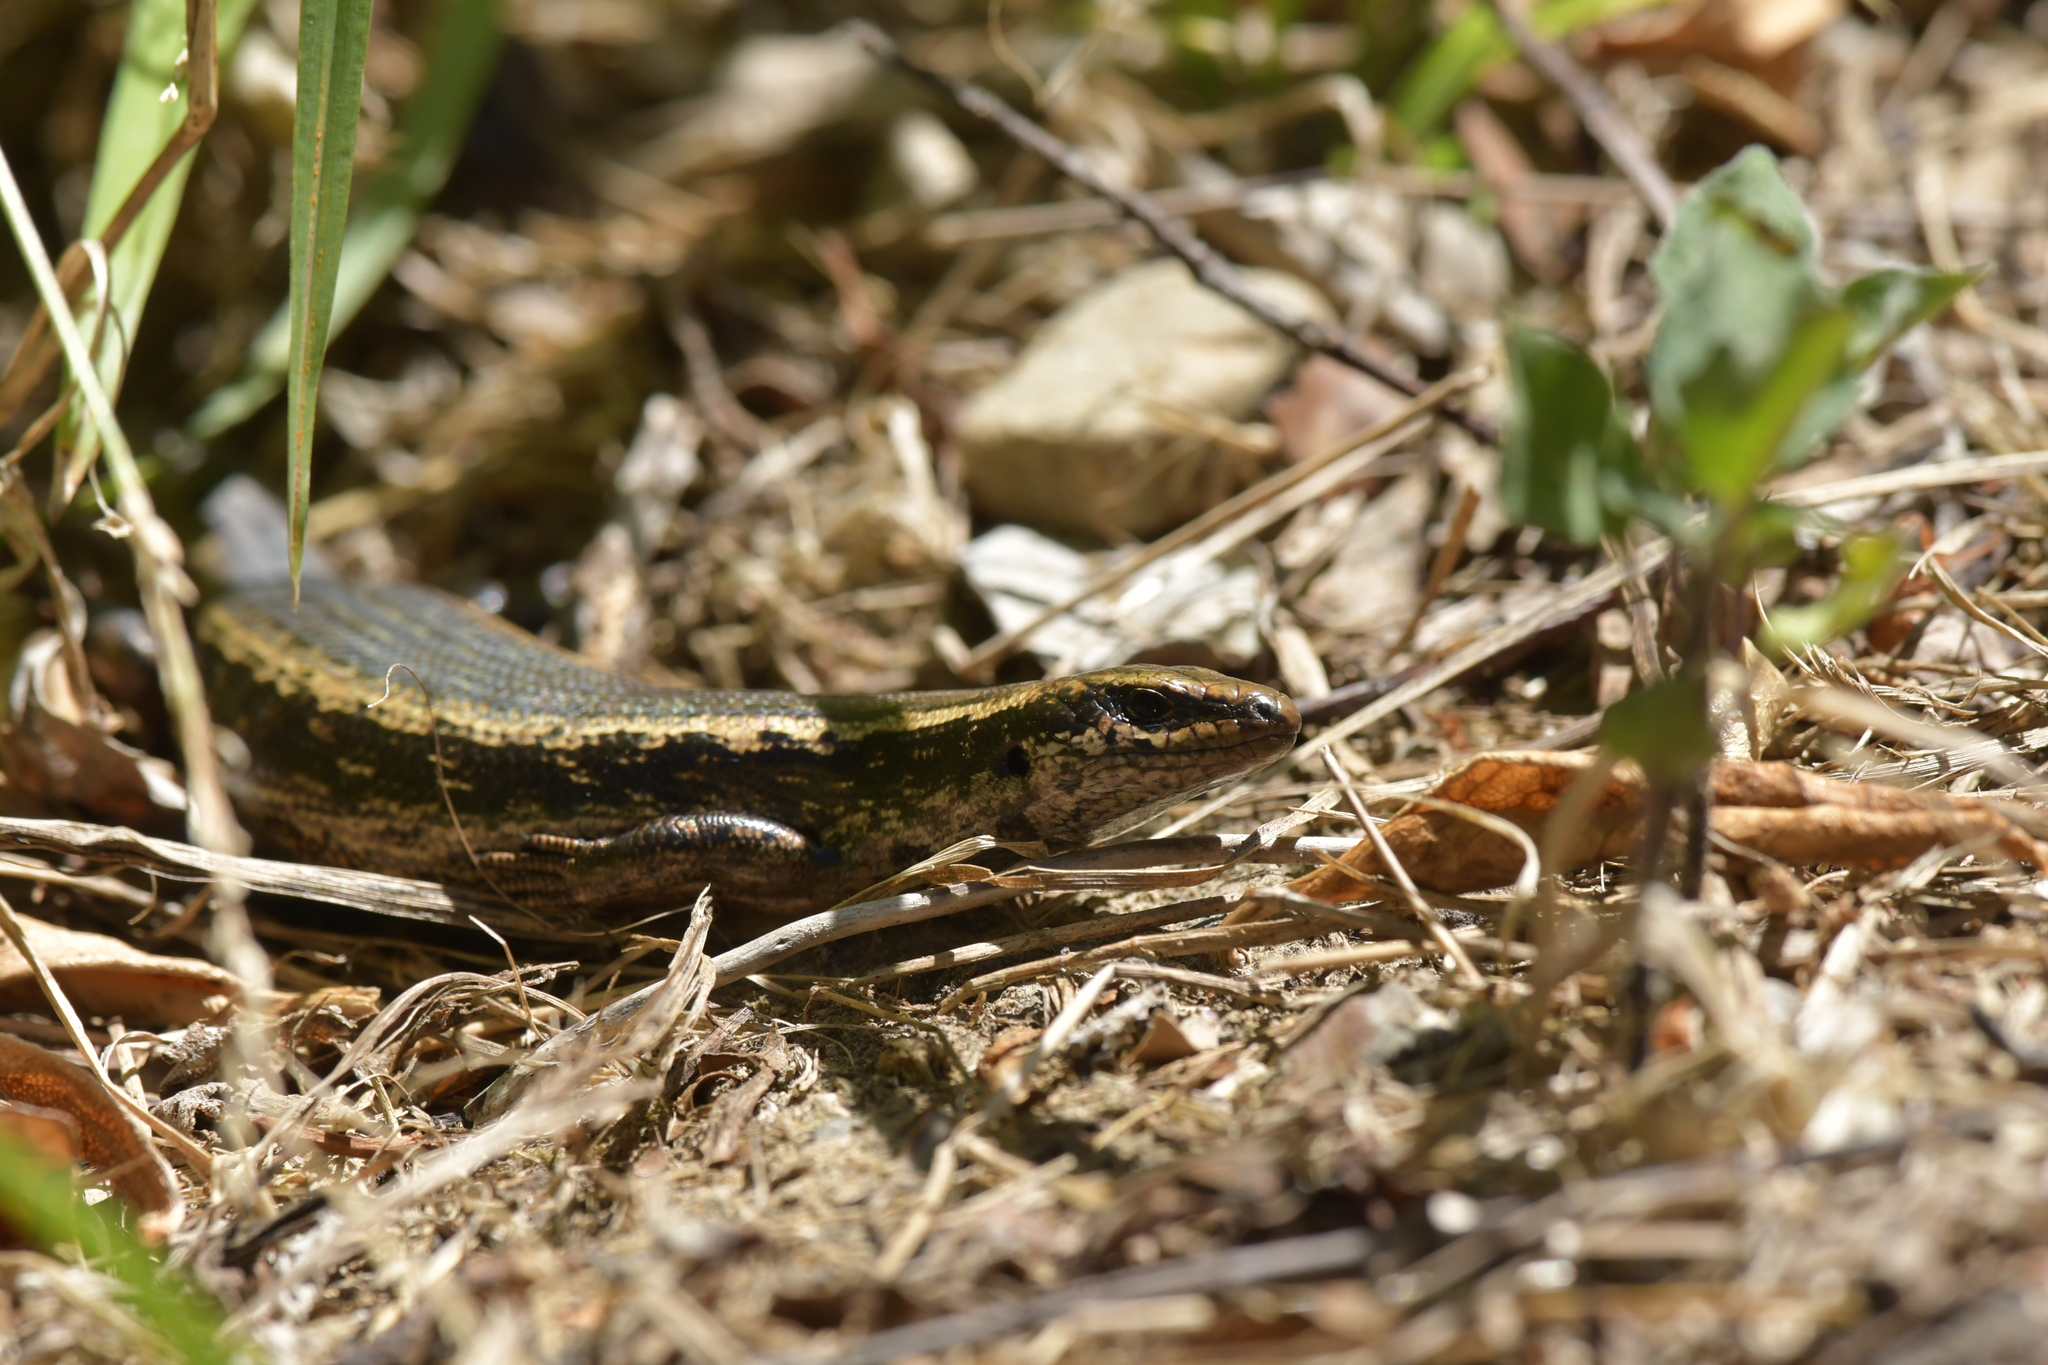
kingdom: Animalia
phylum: Chordata
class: Squamata
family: Scincidae
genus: Oligosoma
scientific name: Oligosoma kokowai
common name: Northern spotted skink
